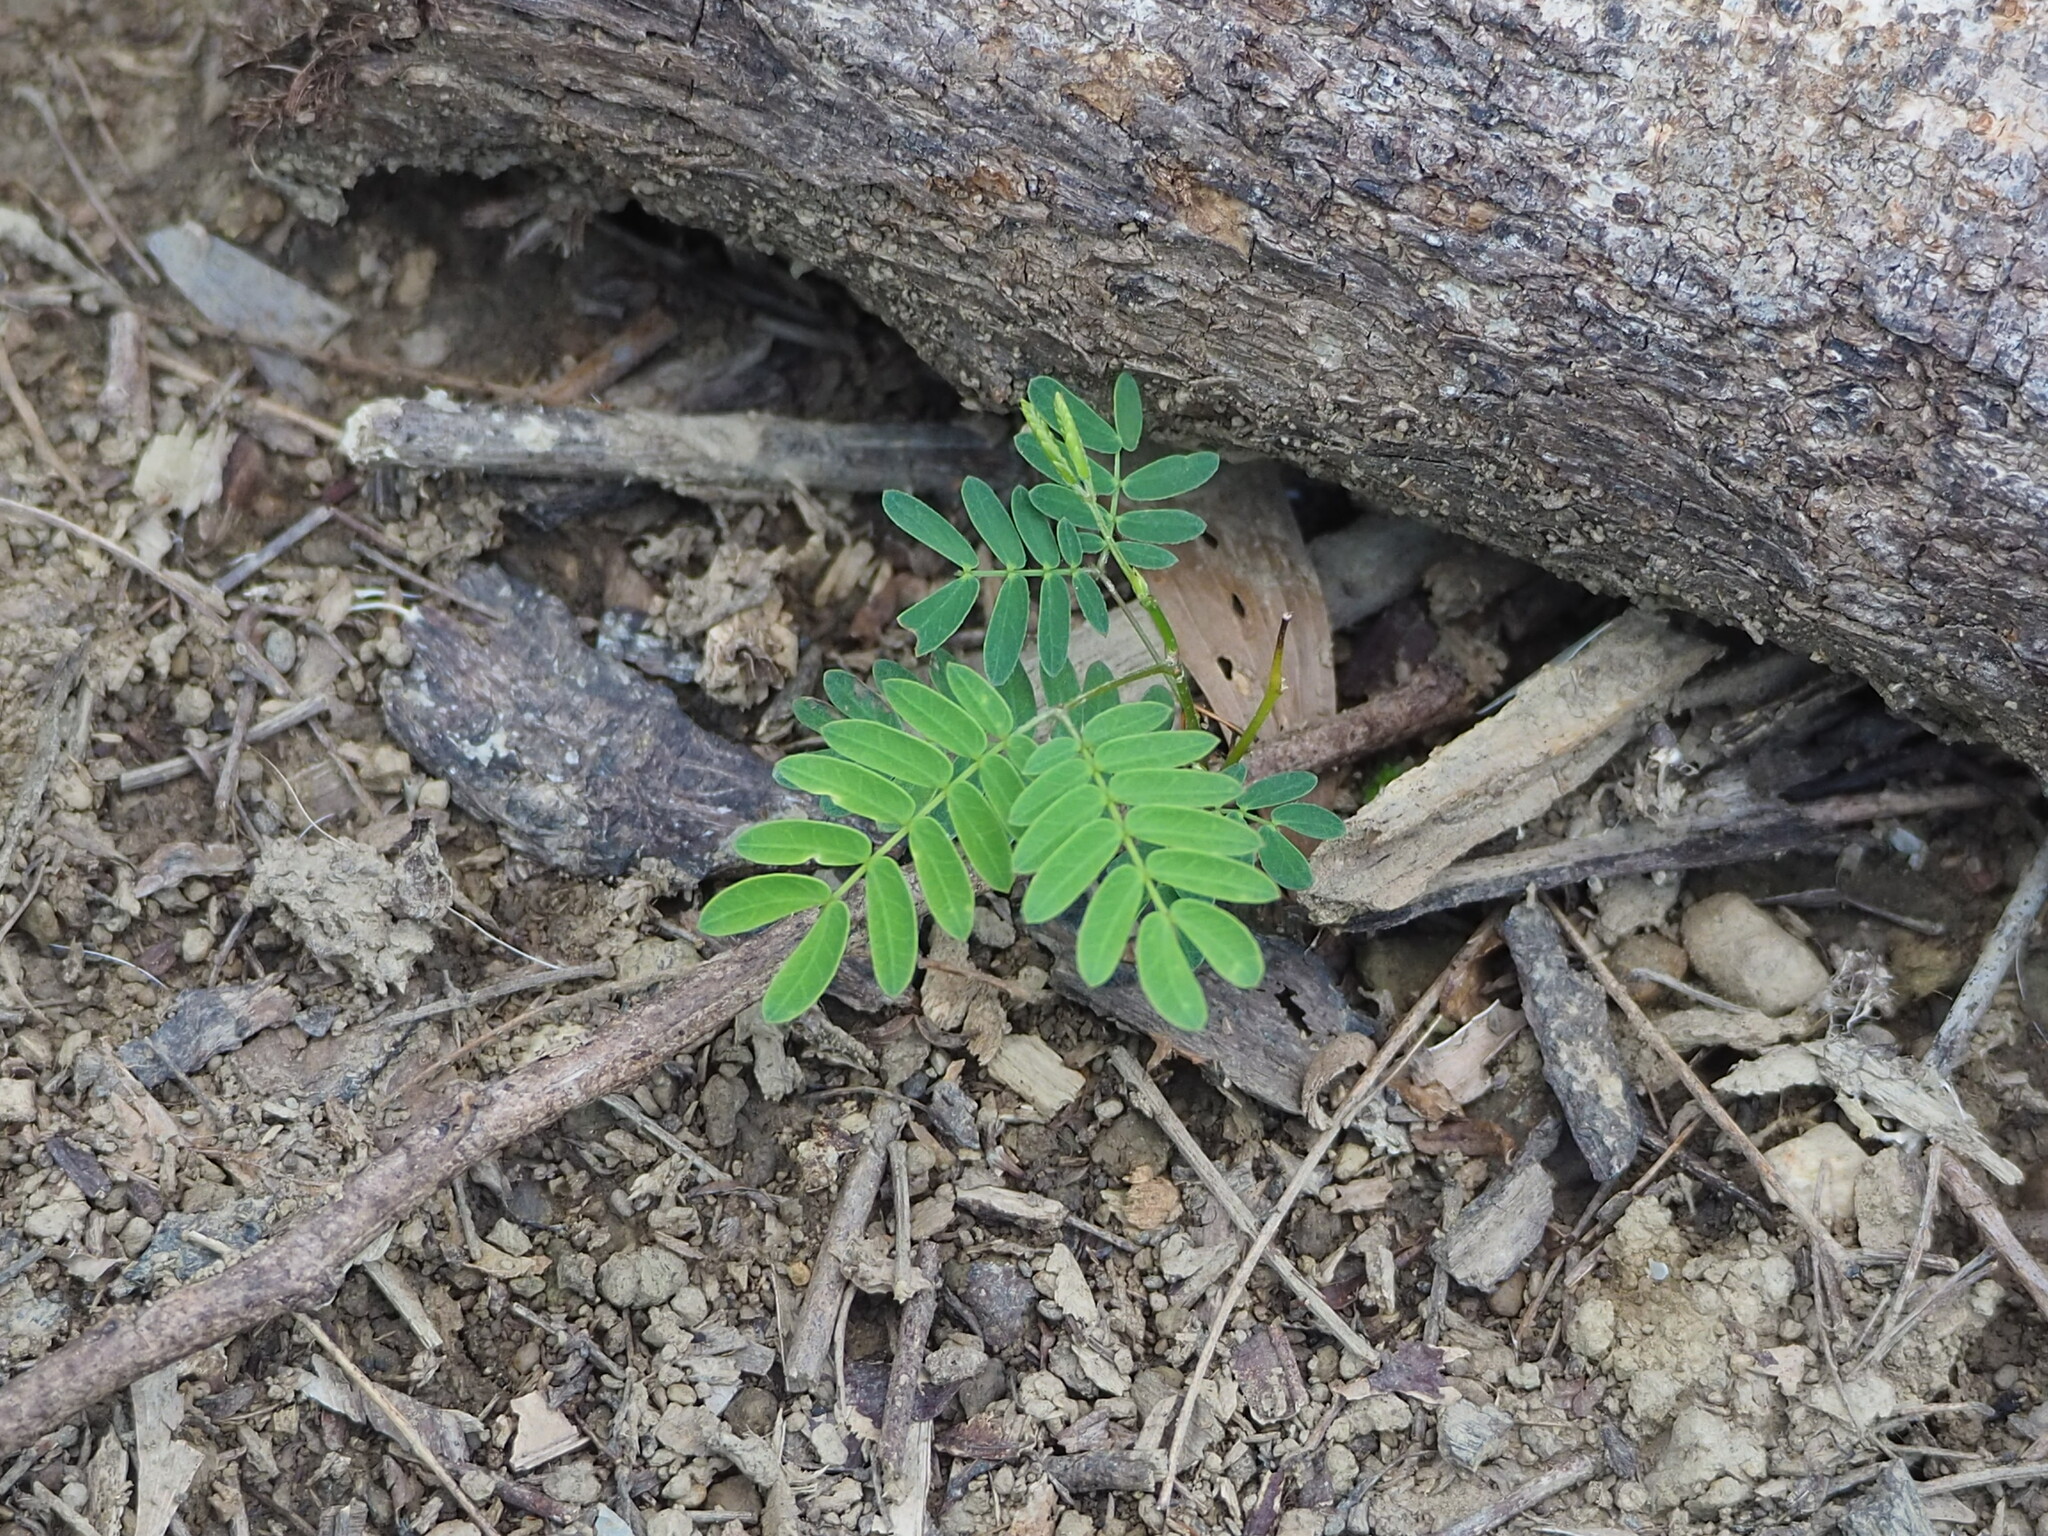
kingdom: Plantae
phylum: Tracheophyta
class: Magnoliopsida
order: Fabales
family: Fabaceae
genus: Leucaena
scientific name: Leucaena leucocephala
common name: White leadtree
